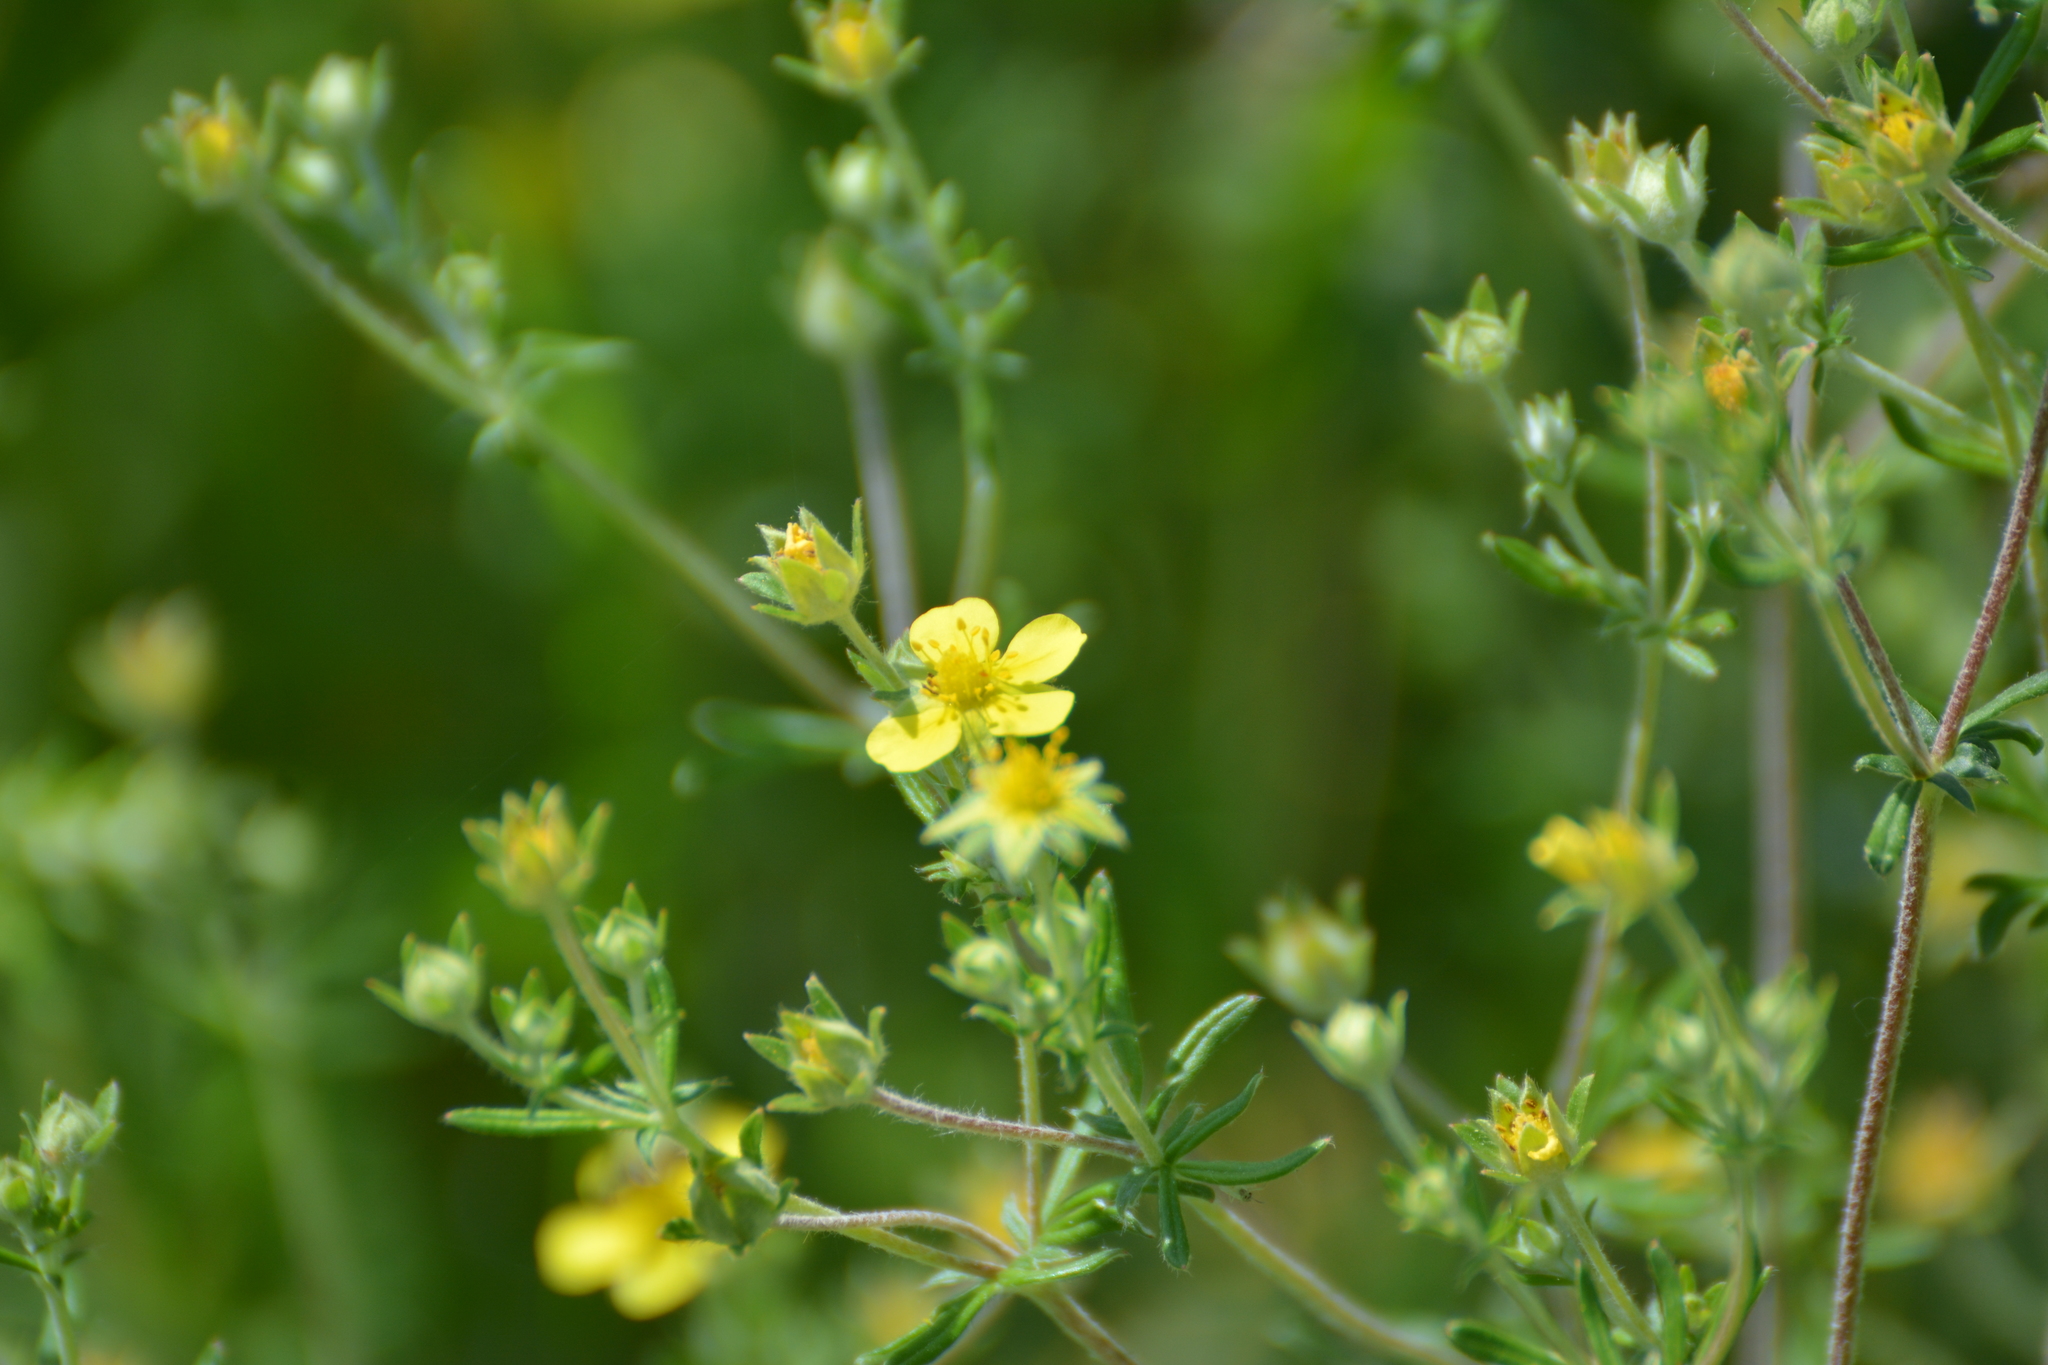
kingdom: Plantae
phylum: Tracheophyta
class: Magnoliopsida
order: Rosales
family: Rosaceae
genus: Potentilla
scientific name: Potentilla argentea
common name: Hoary cinquefoil
